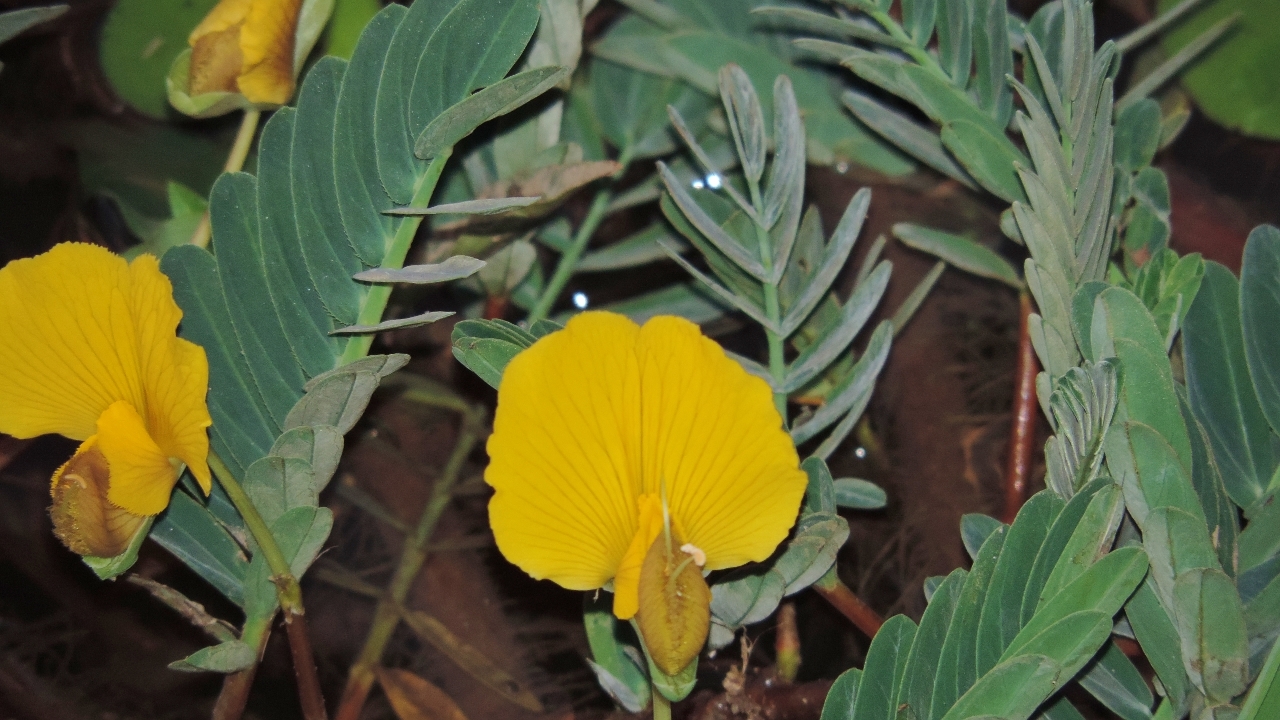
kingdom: Plantae
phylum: Tracheophyta
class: Magnoliopsida
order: Fabales
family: Fabaceae
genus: Aeschynomene
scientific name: Aeschynomene fluitans
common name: Giant water sensitive plant
